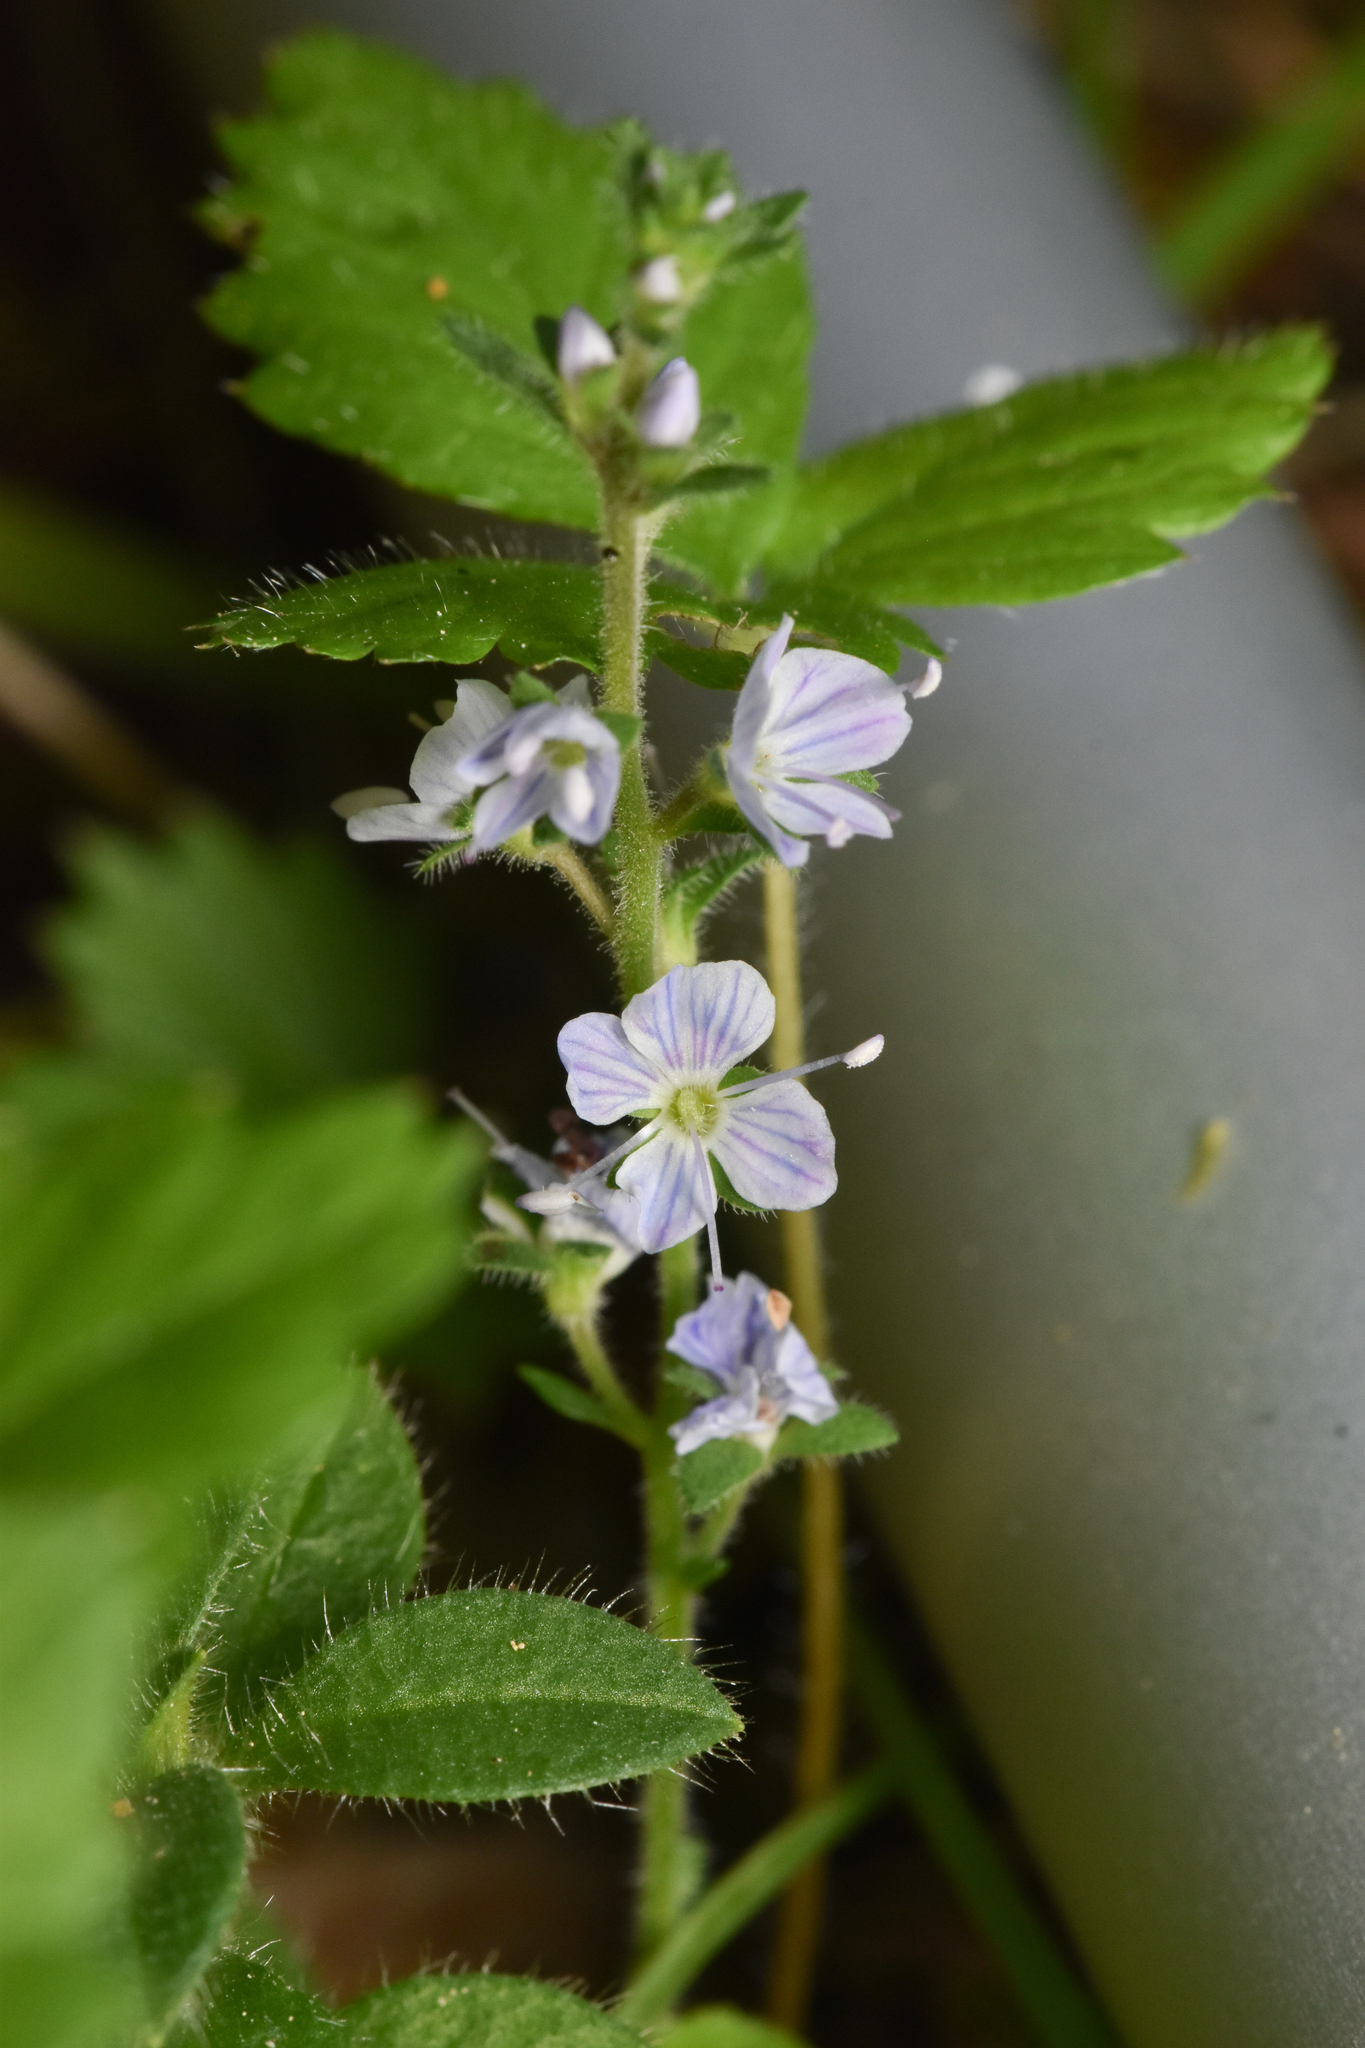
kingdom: Plantae
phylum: Tracheophyta
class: Magnoliopsida
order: Lamiales
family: Plantaginaceae
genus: Veronica
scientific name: Veronica officinalis
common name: Common speedwell
